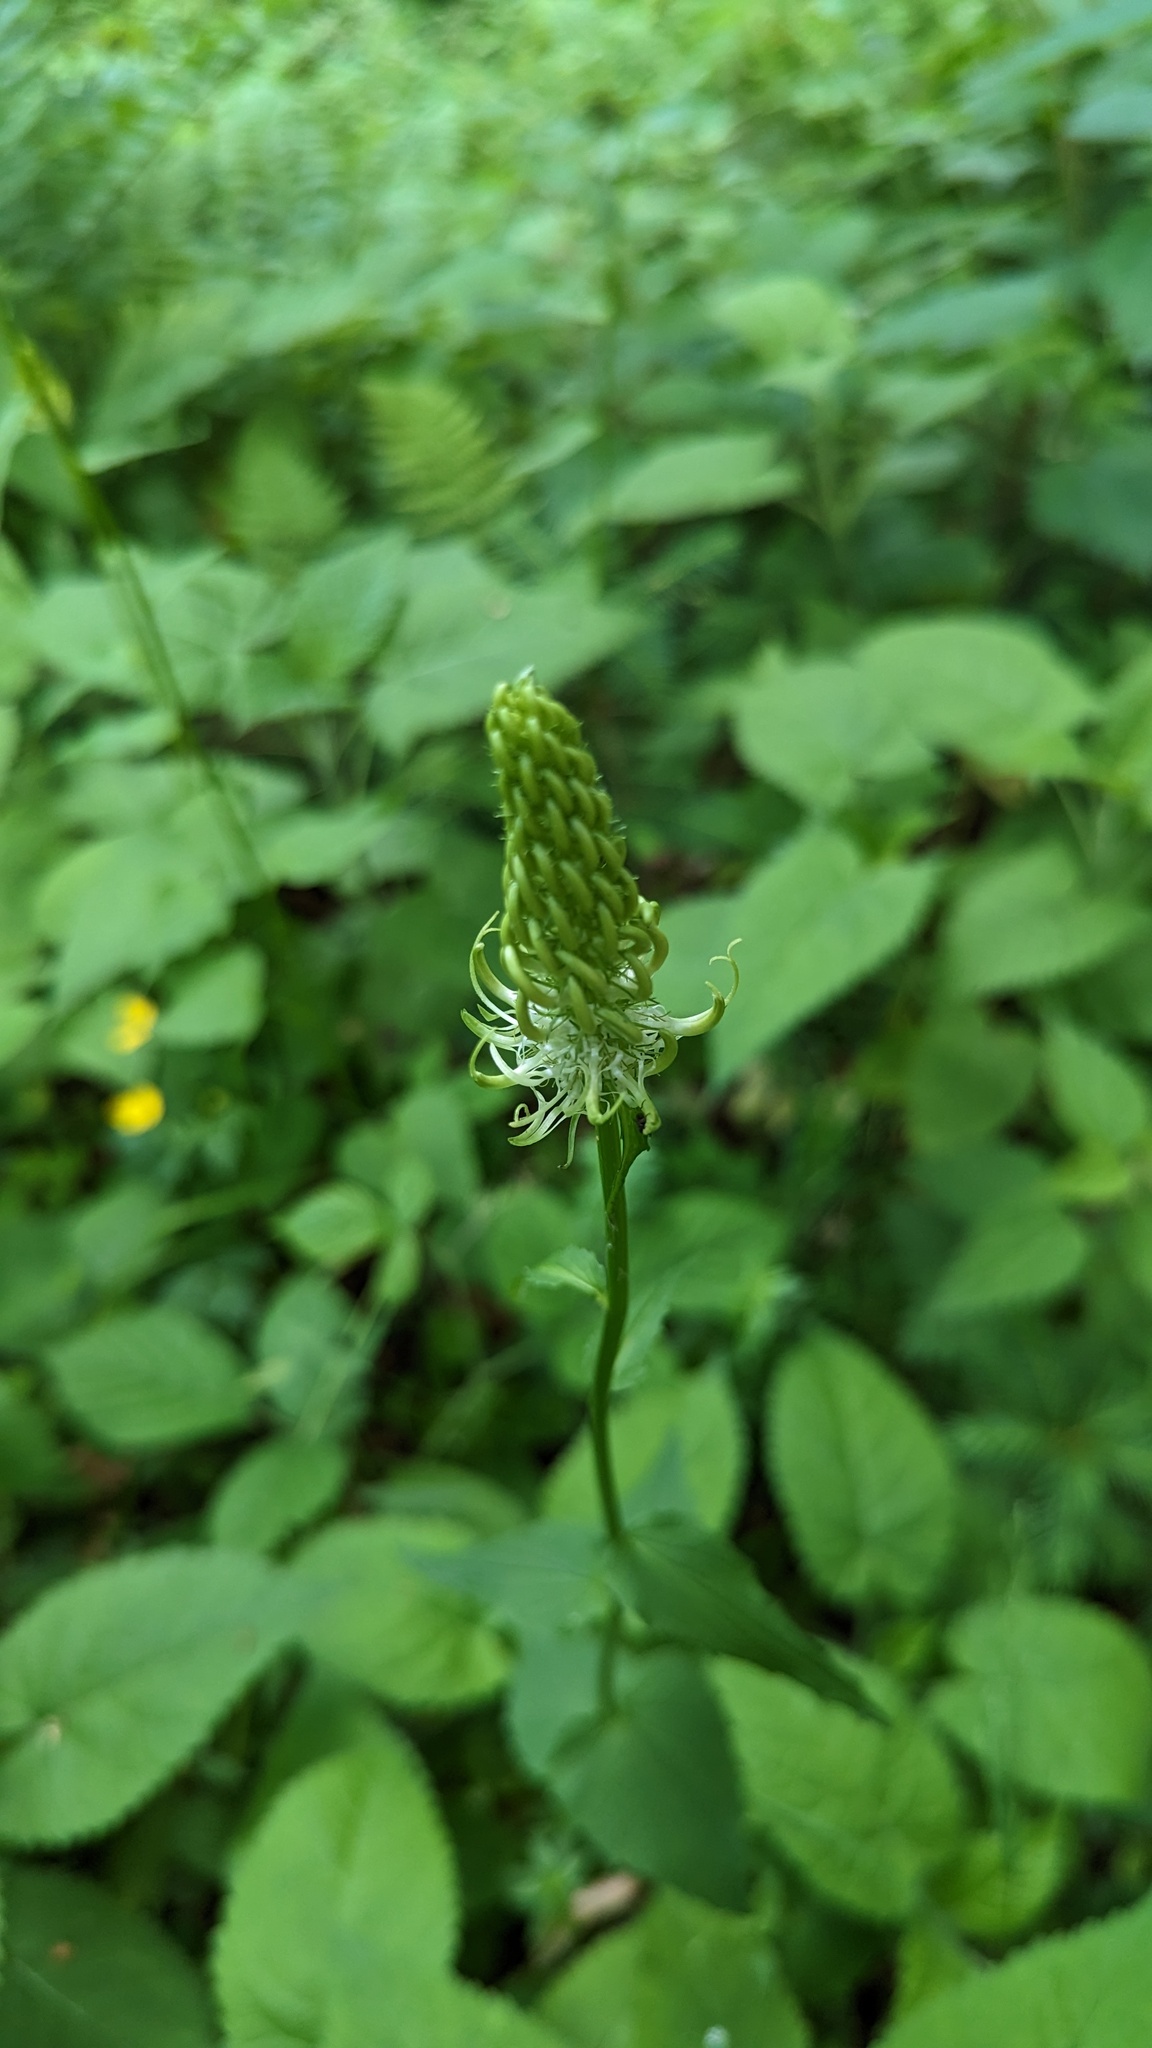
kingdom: Plantae
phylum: Tracheophyta
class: Magnoliopsida
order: Asterales
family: Campanulaceae
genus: Phyteuma
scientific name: Phyteuma spicatum
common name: Spiked rampion
